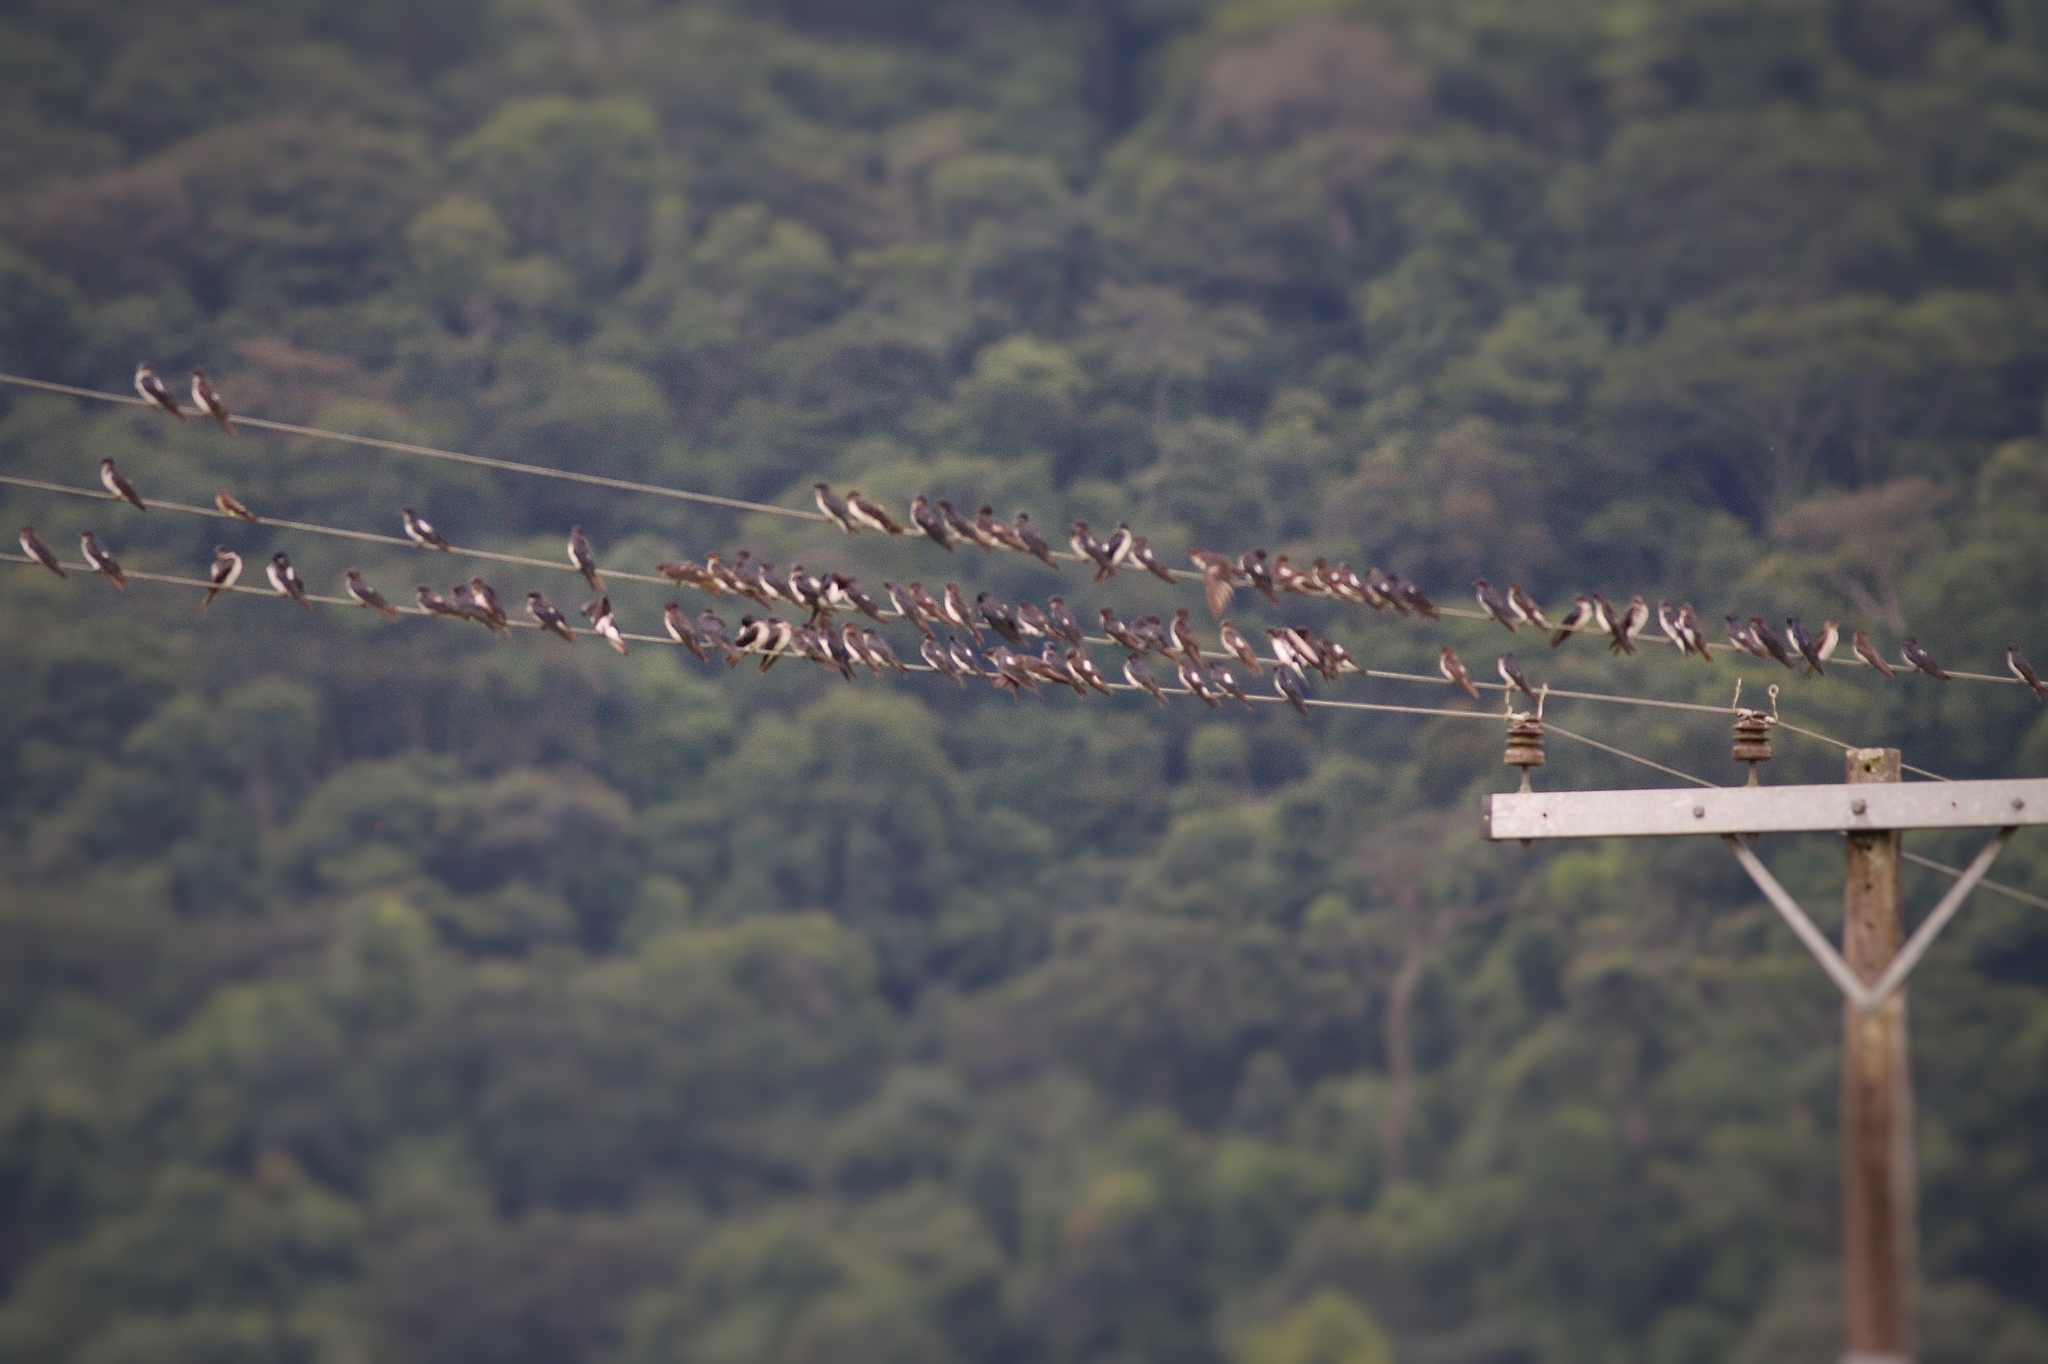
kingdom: Animalia
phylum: Chordata
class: Aves
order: Passeriformes
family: Hirundinidae
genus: Progne
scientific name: Progne chalybea
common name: Grey-breasted martin
